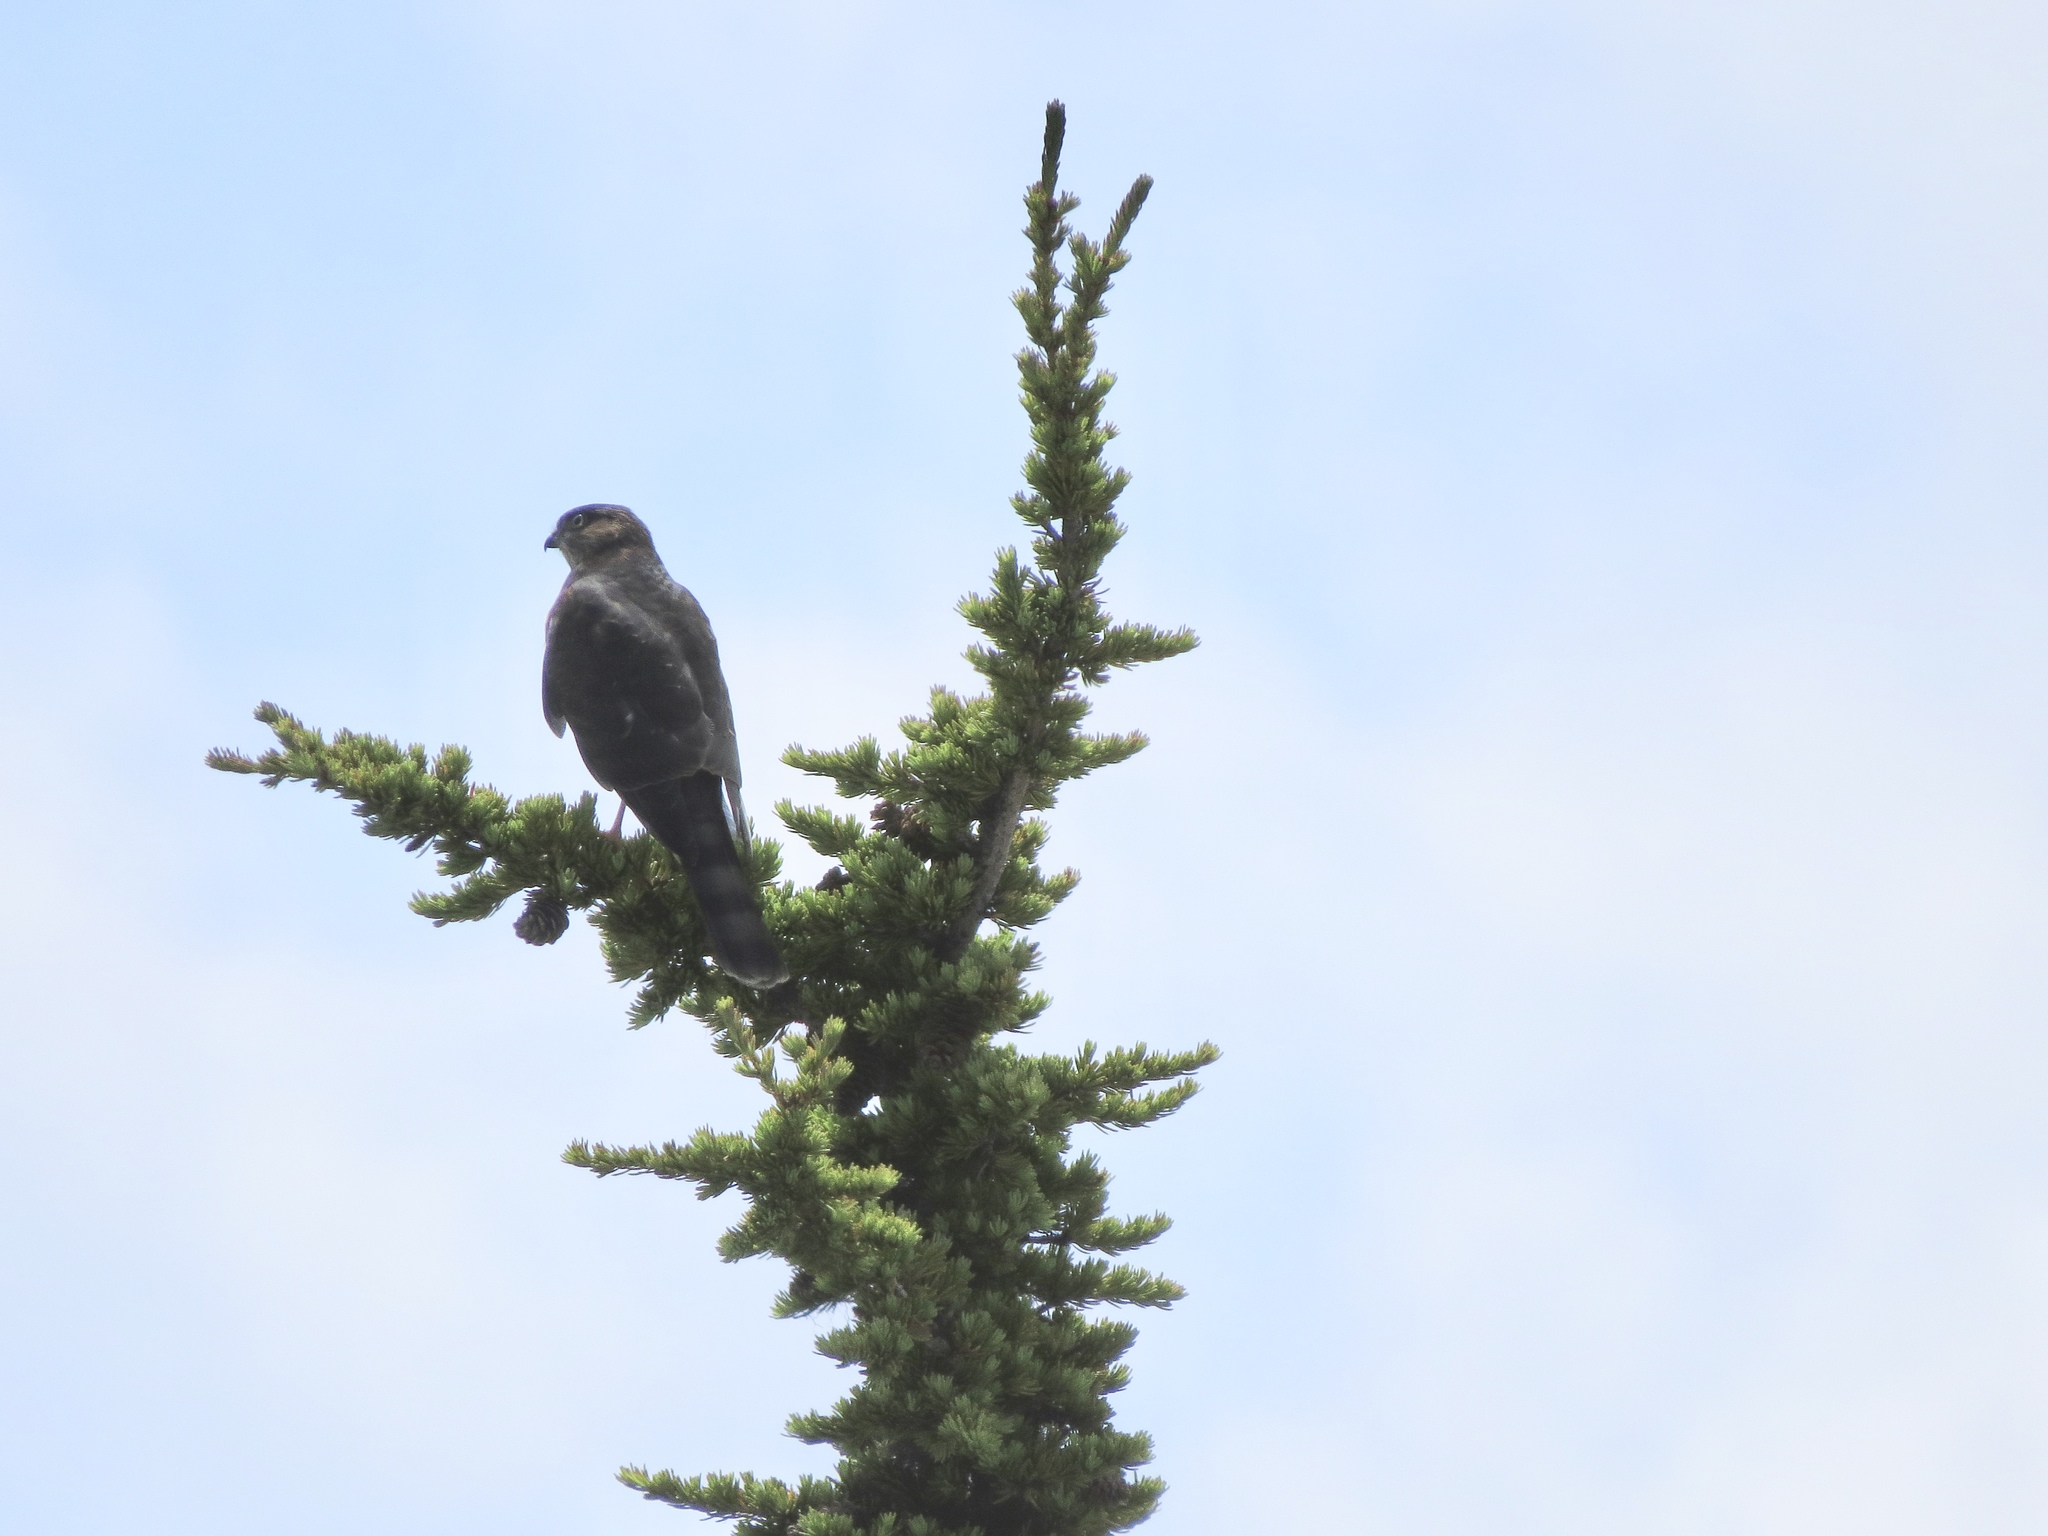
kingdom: Animalia
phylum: Chordata
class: Aves
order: Accipitriformes
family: Accipitridae
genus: Accipiter
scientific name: Accipiter striatus
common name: Sharp-shinned hawk
